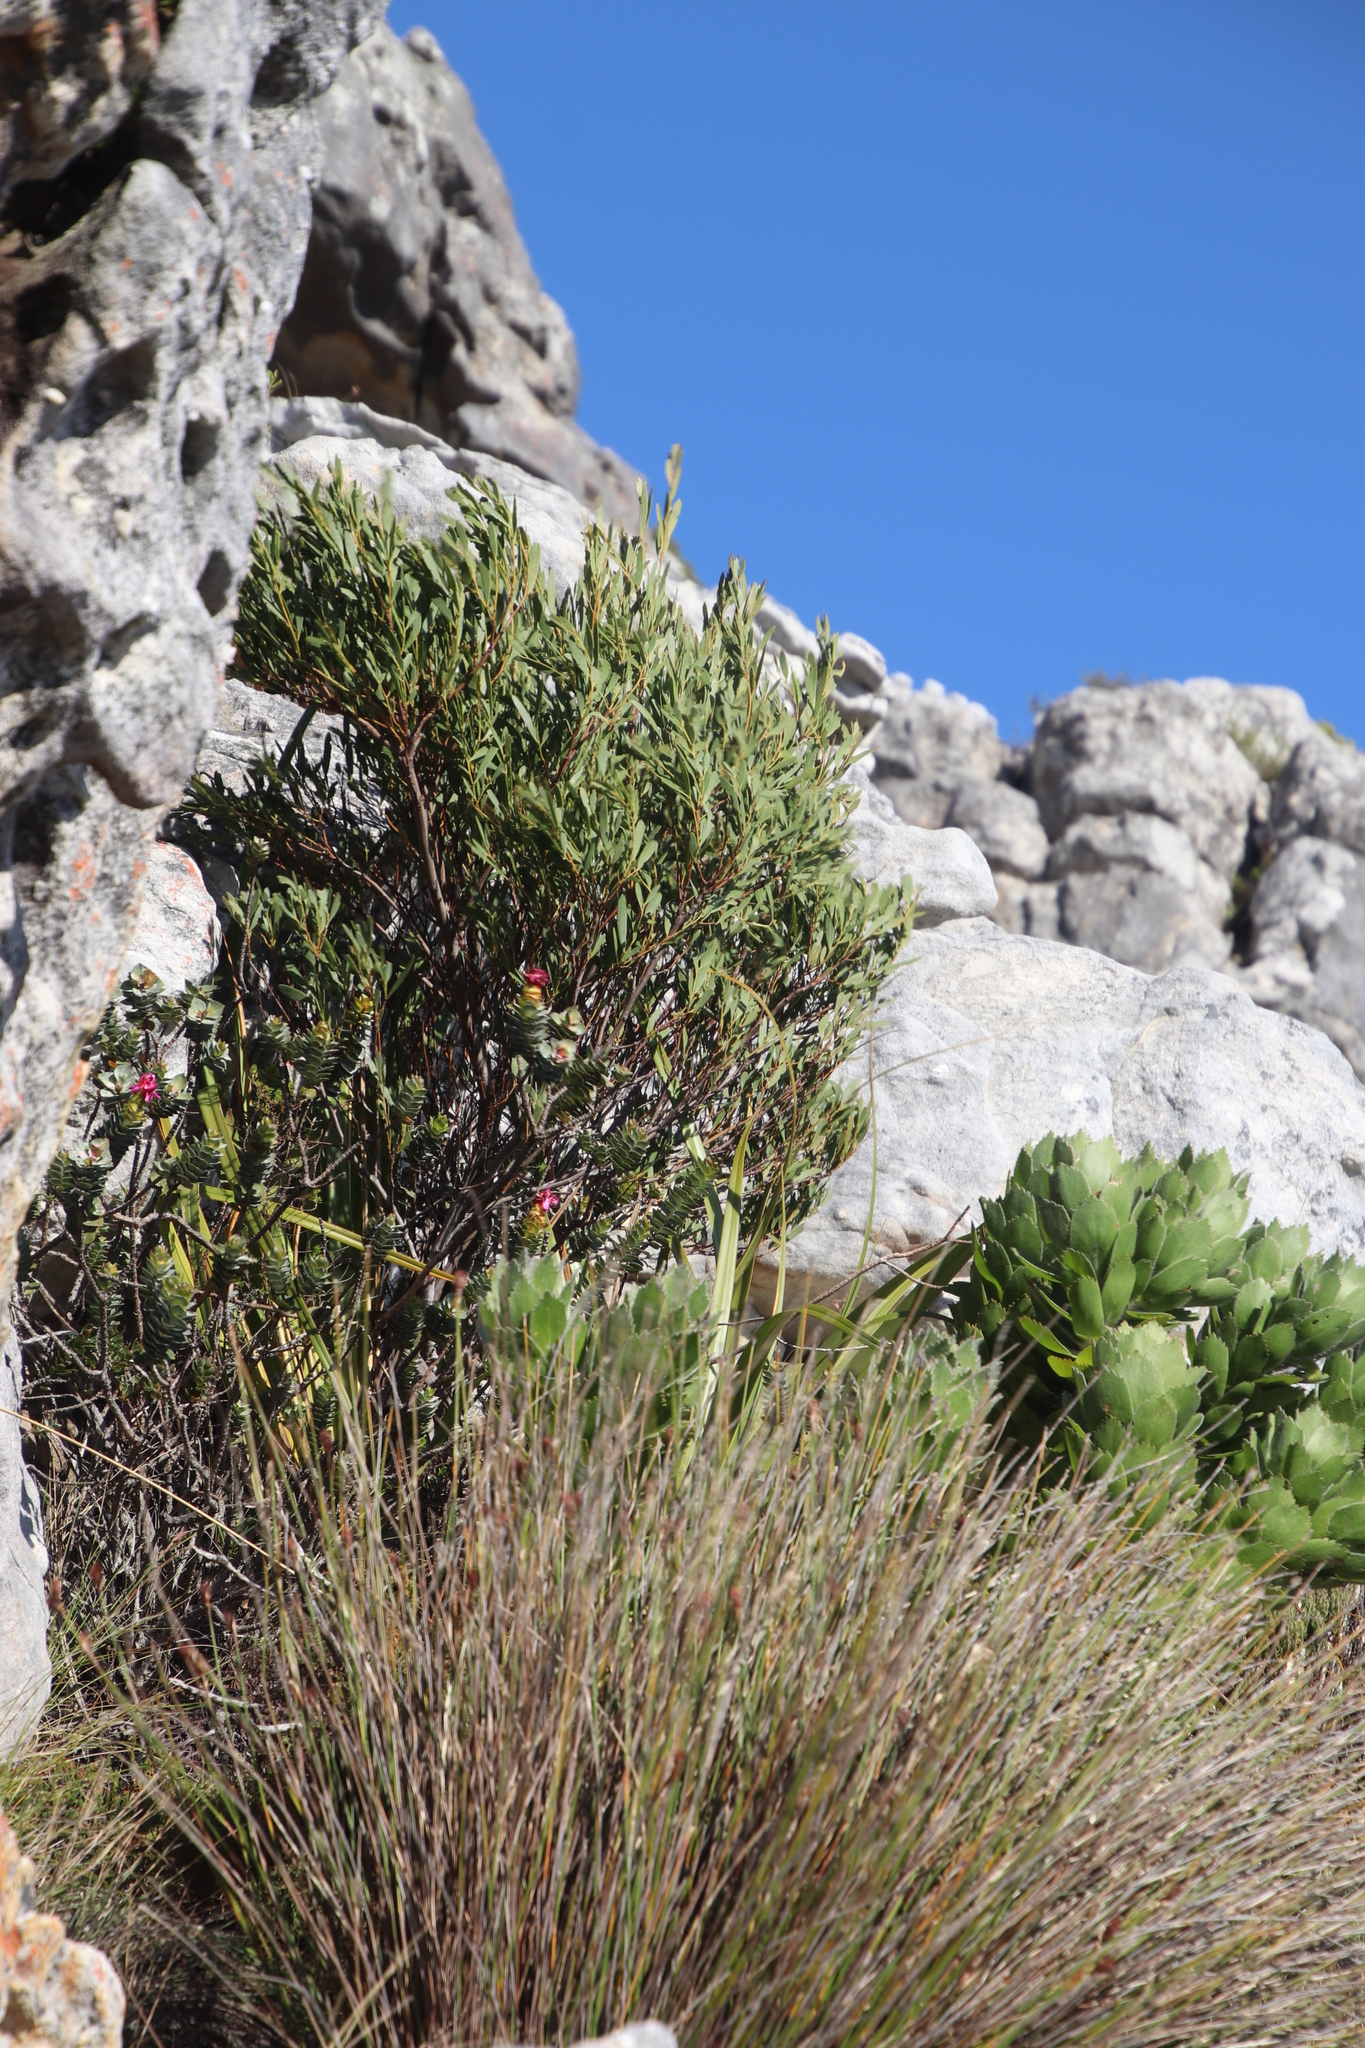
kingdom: Plantae
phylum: Tracheophyta
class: Magnoliopsida
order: Fabales
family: Fabaceae
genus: Acacia
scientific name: Acacia cyclops
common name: Coastal wattle
